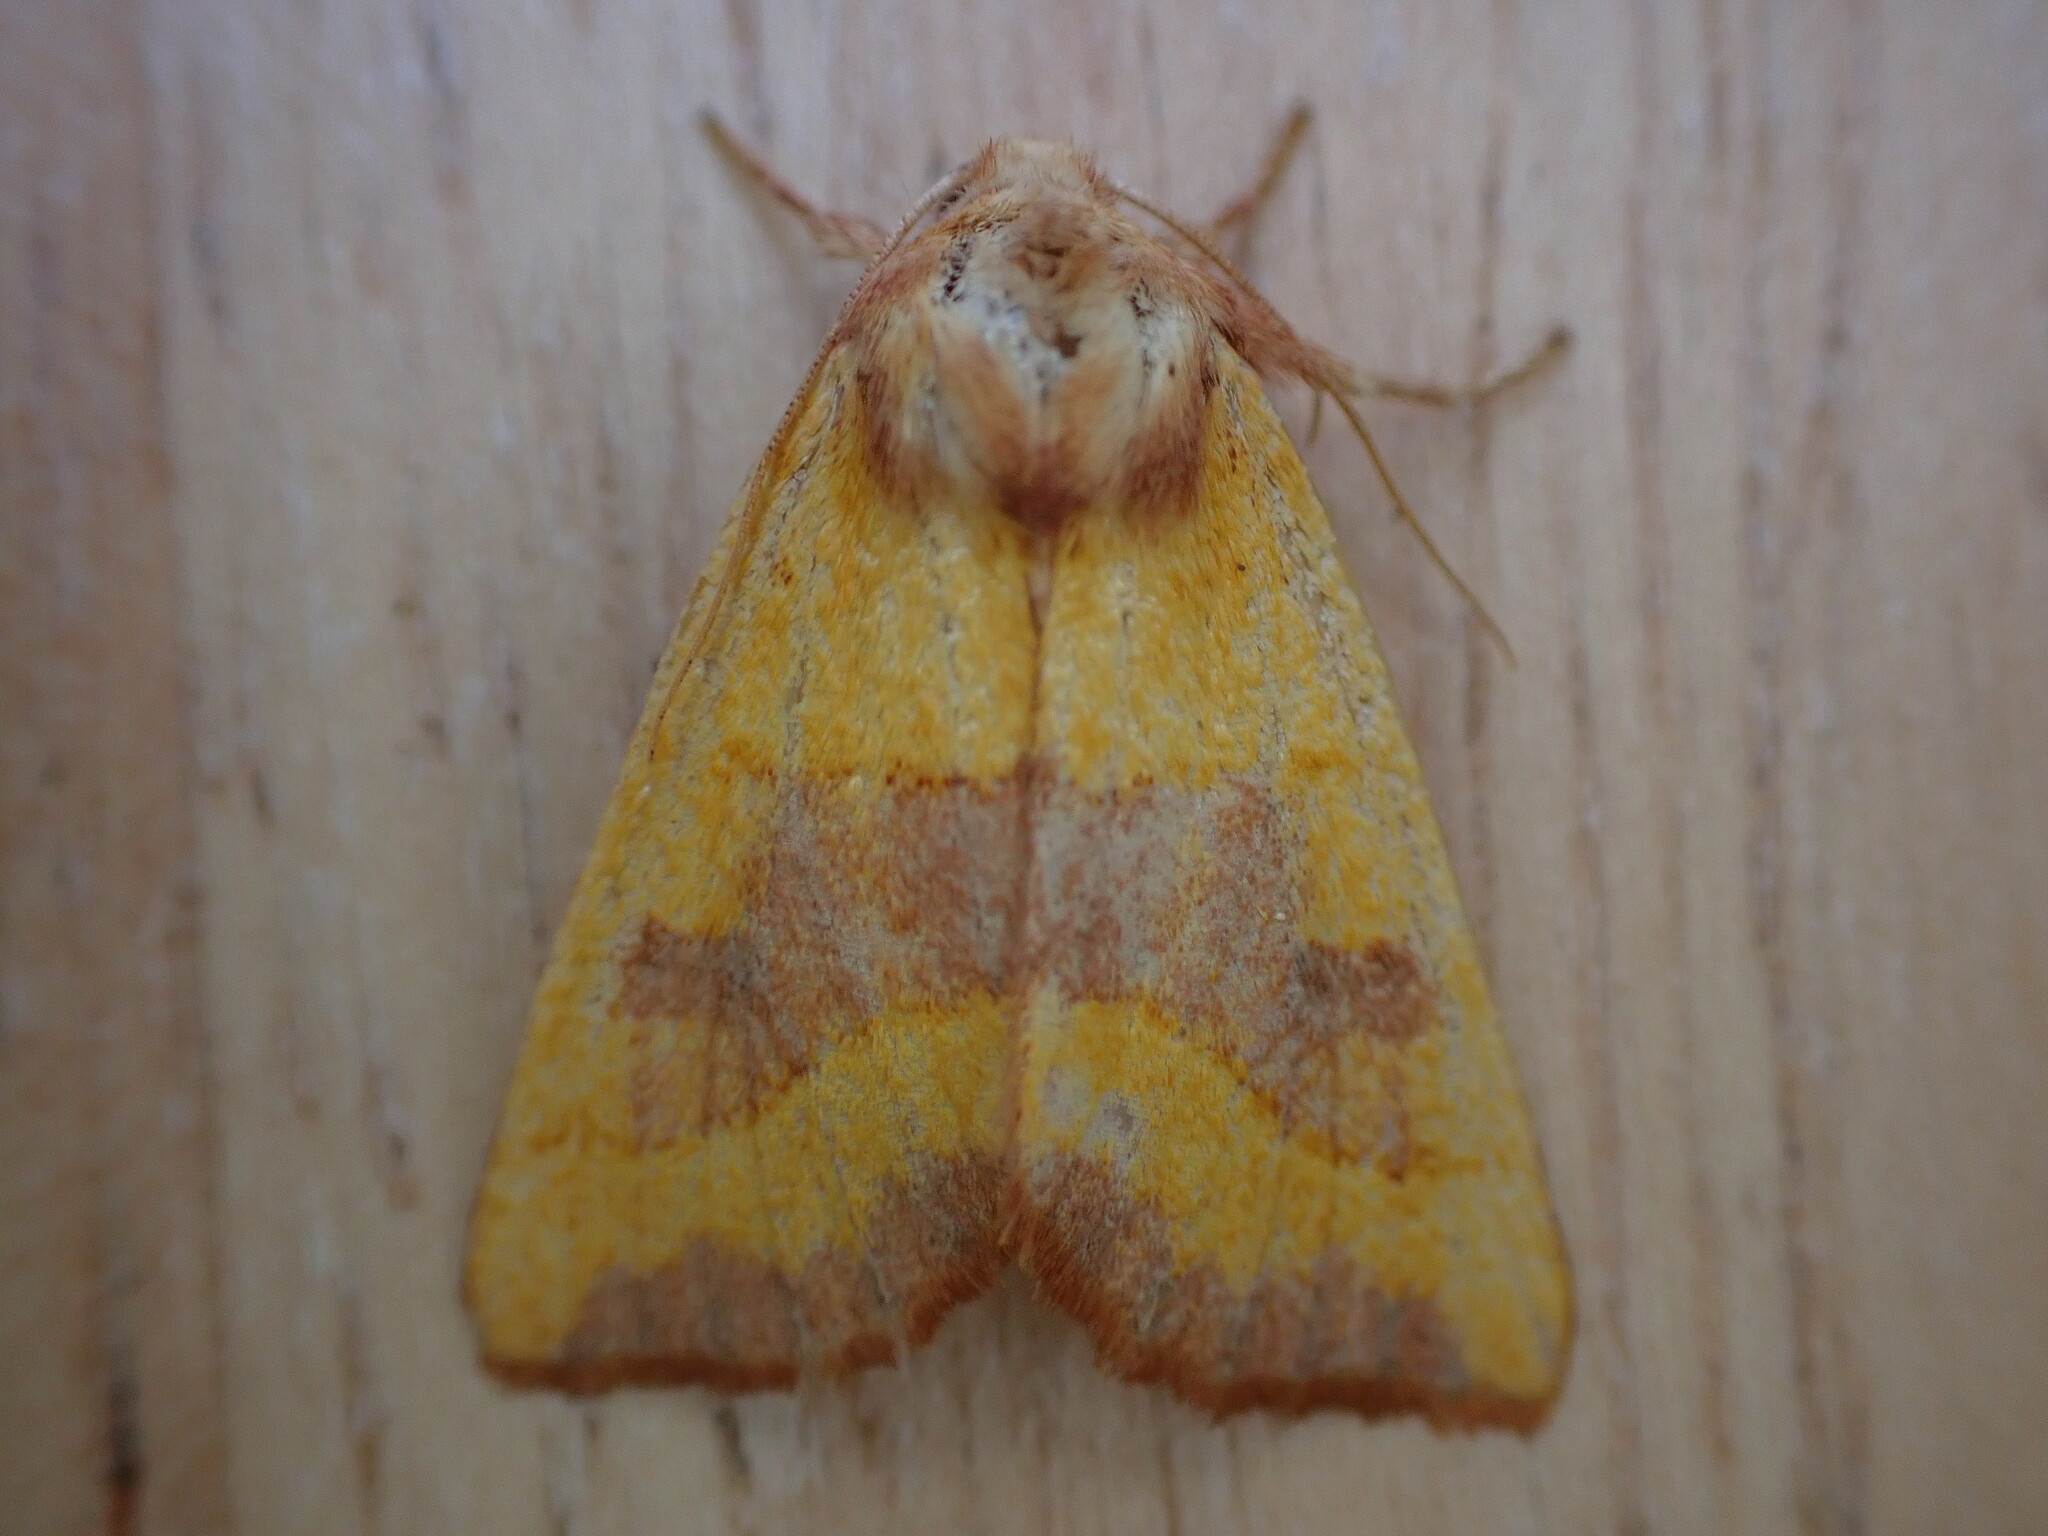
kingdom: Animalia
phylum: Arthropoda
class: Insecta
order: Lepidoptera
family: Noctuidae
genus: Atethmia
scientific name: Atethmia centrago
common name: Centre-barred sallow
